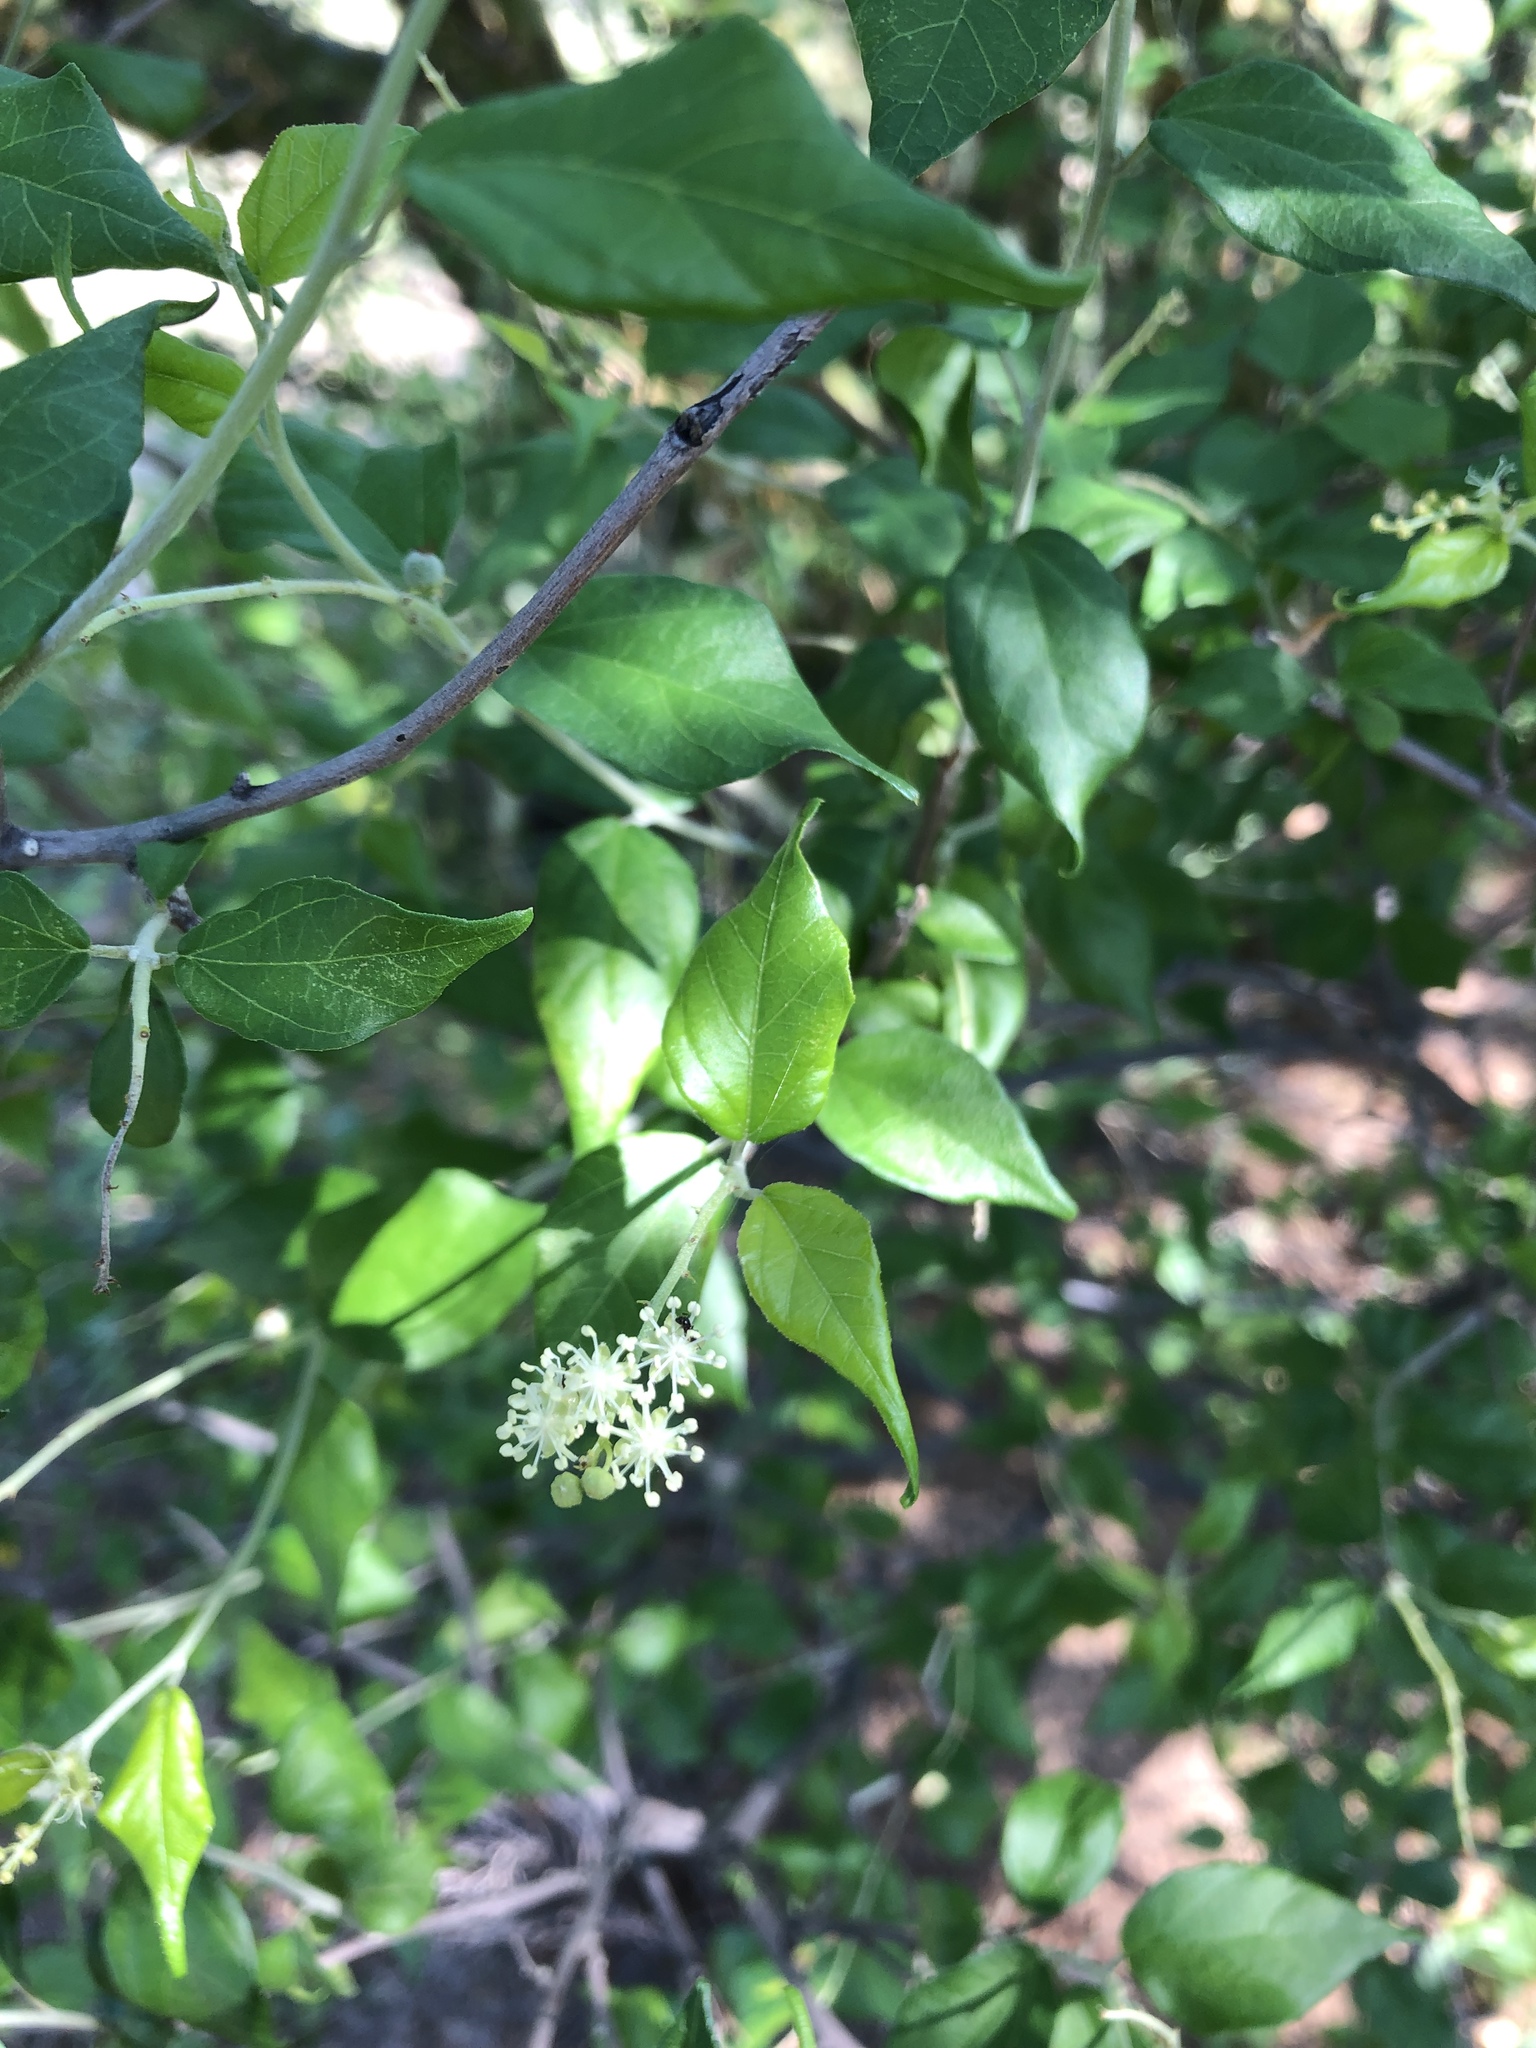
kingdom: Plantae
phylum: Tracheophyta
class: Magnoliopsida
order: Malpighiales
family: Euphorbiaceae
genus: Croton
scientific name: Croton sonorae
